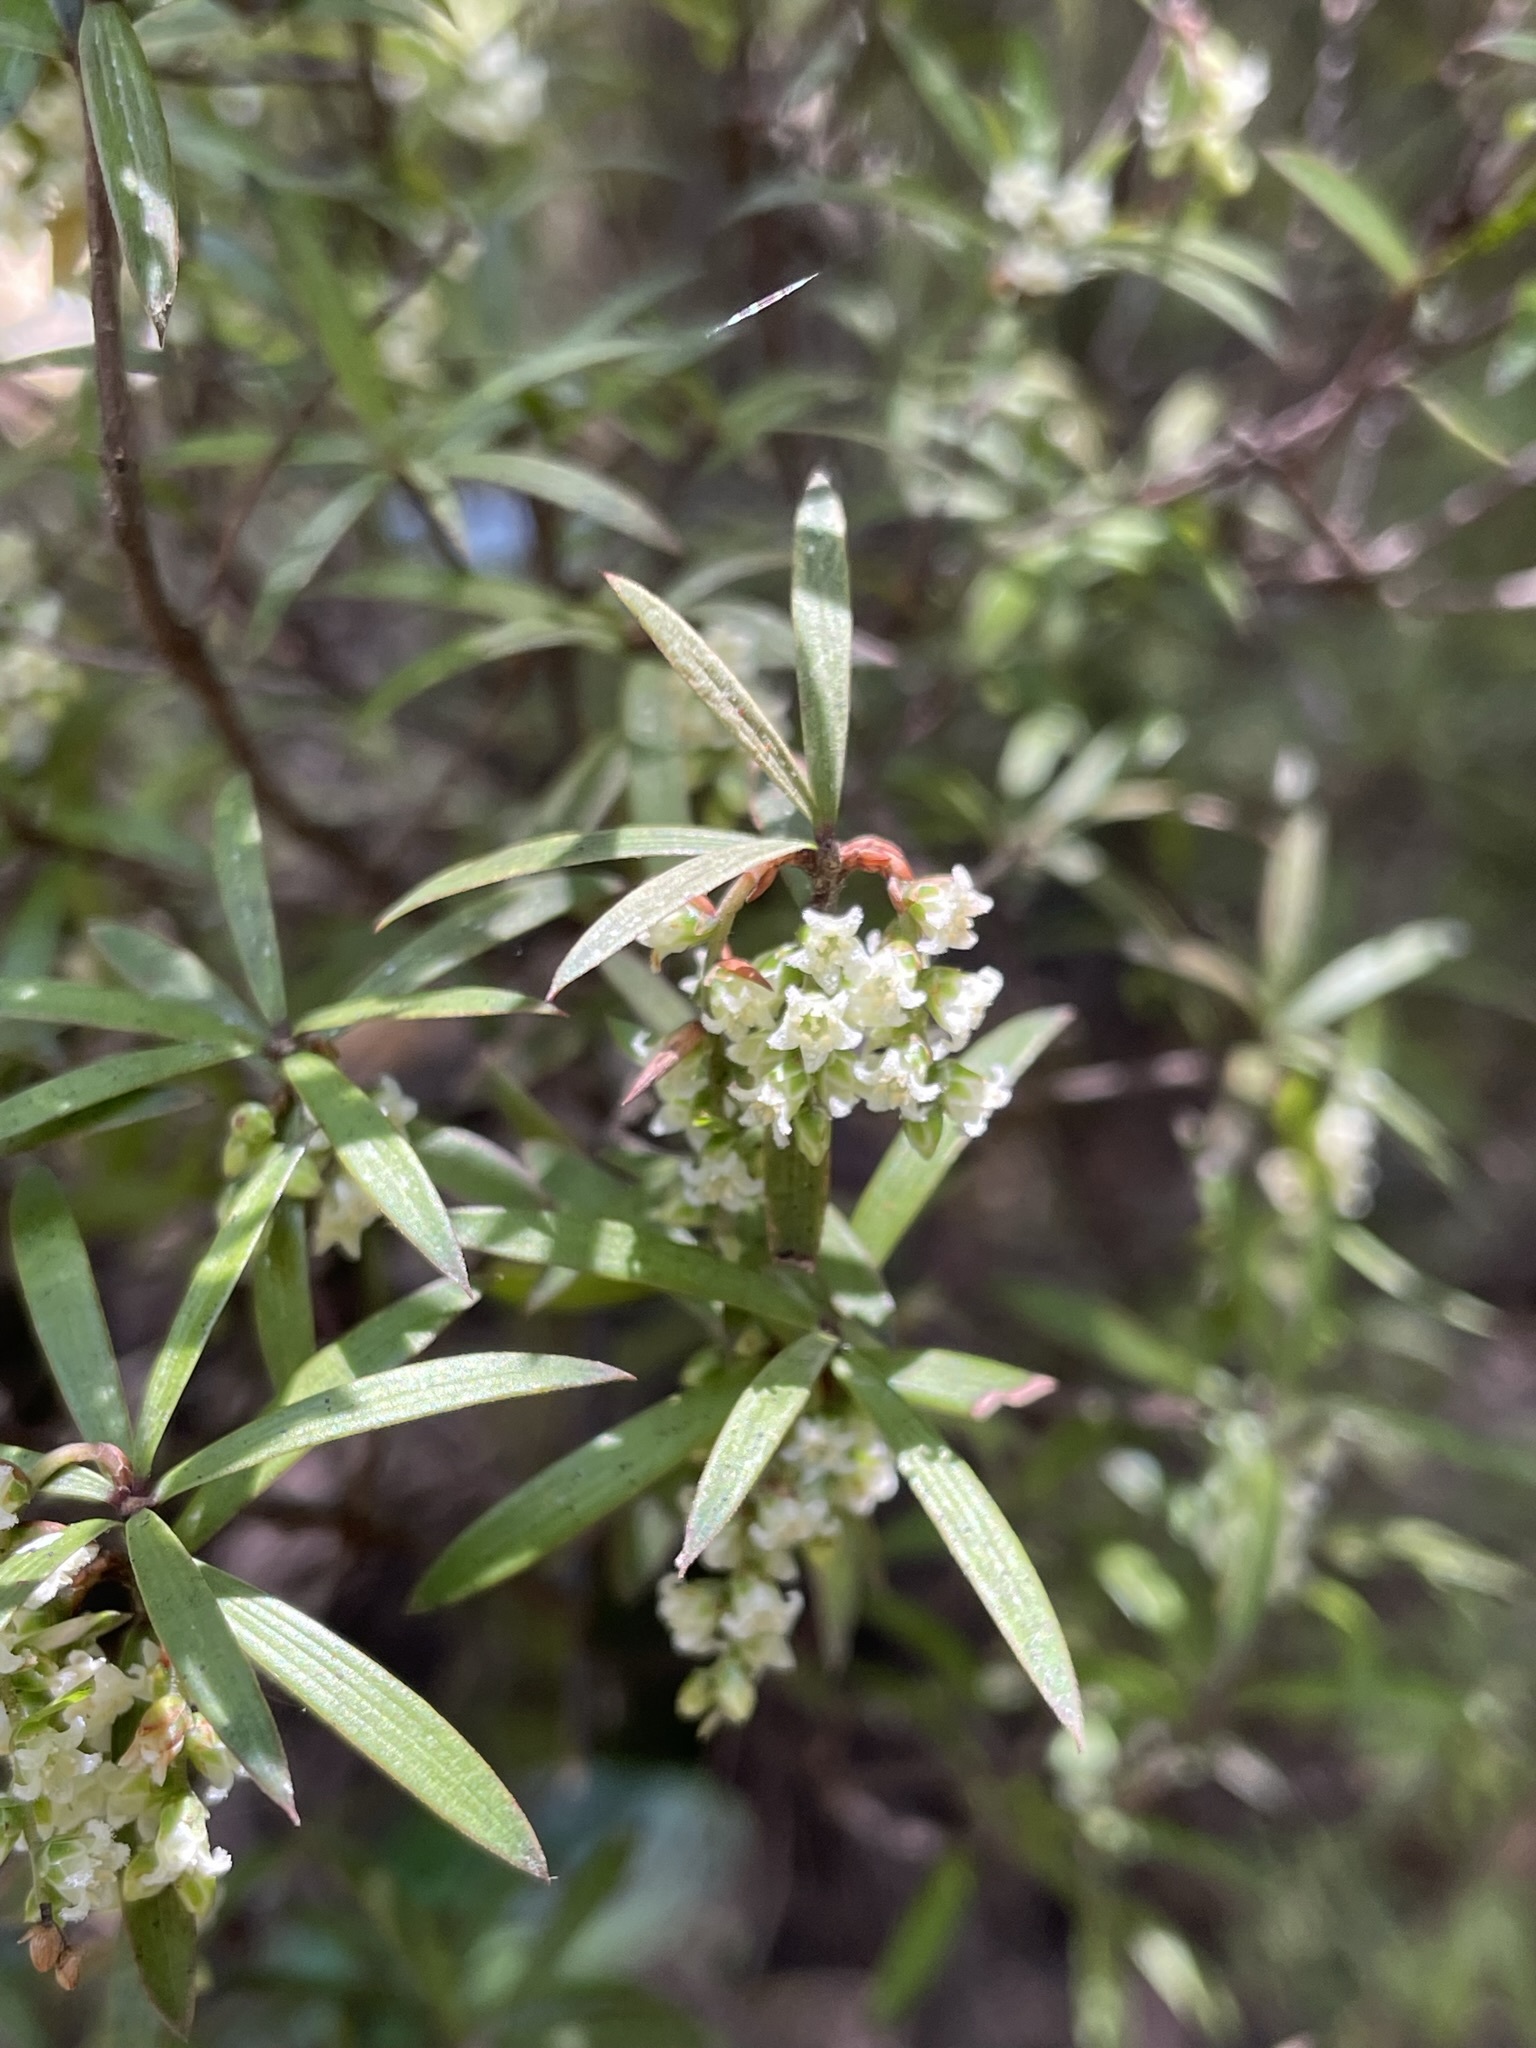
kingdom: Plantae
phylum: Tracheophyta
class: Magnoliopsida
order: Ericales
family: Ericaceae
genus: Leucopogon
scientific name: Leucopogon fasciculatus
